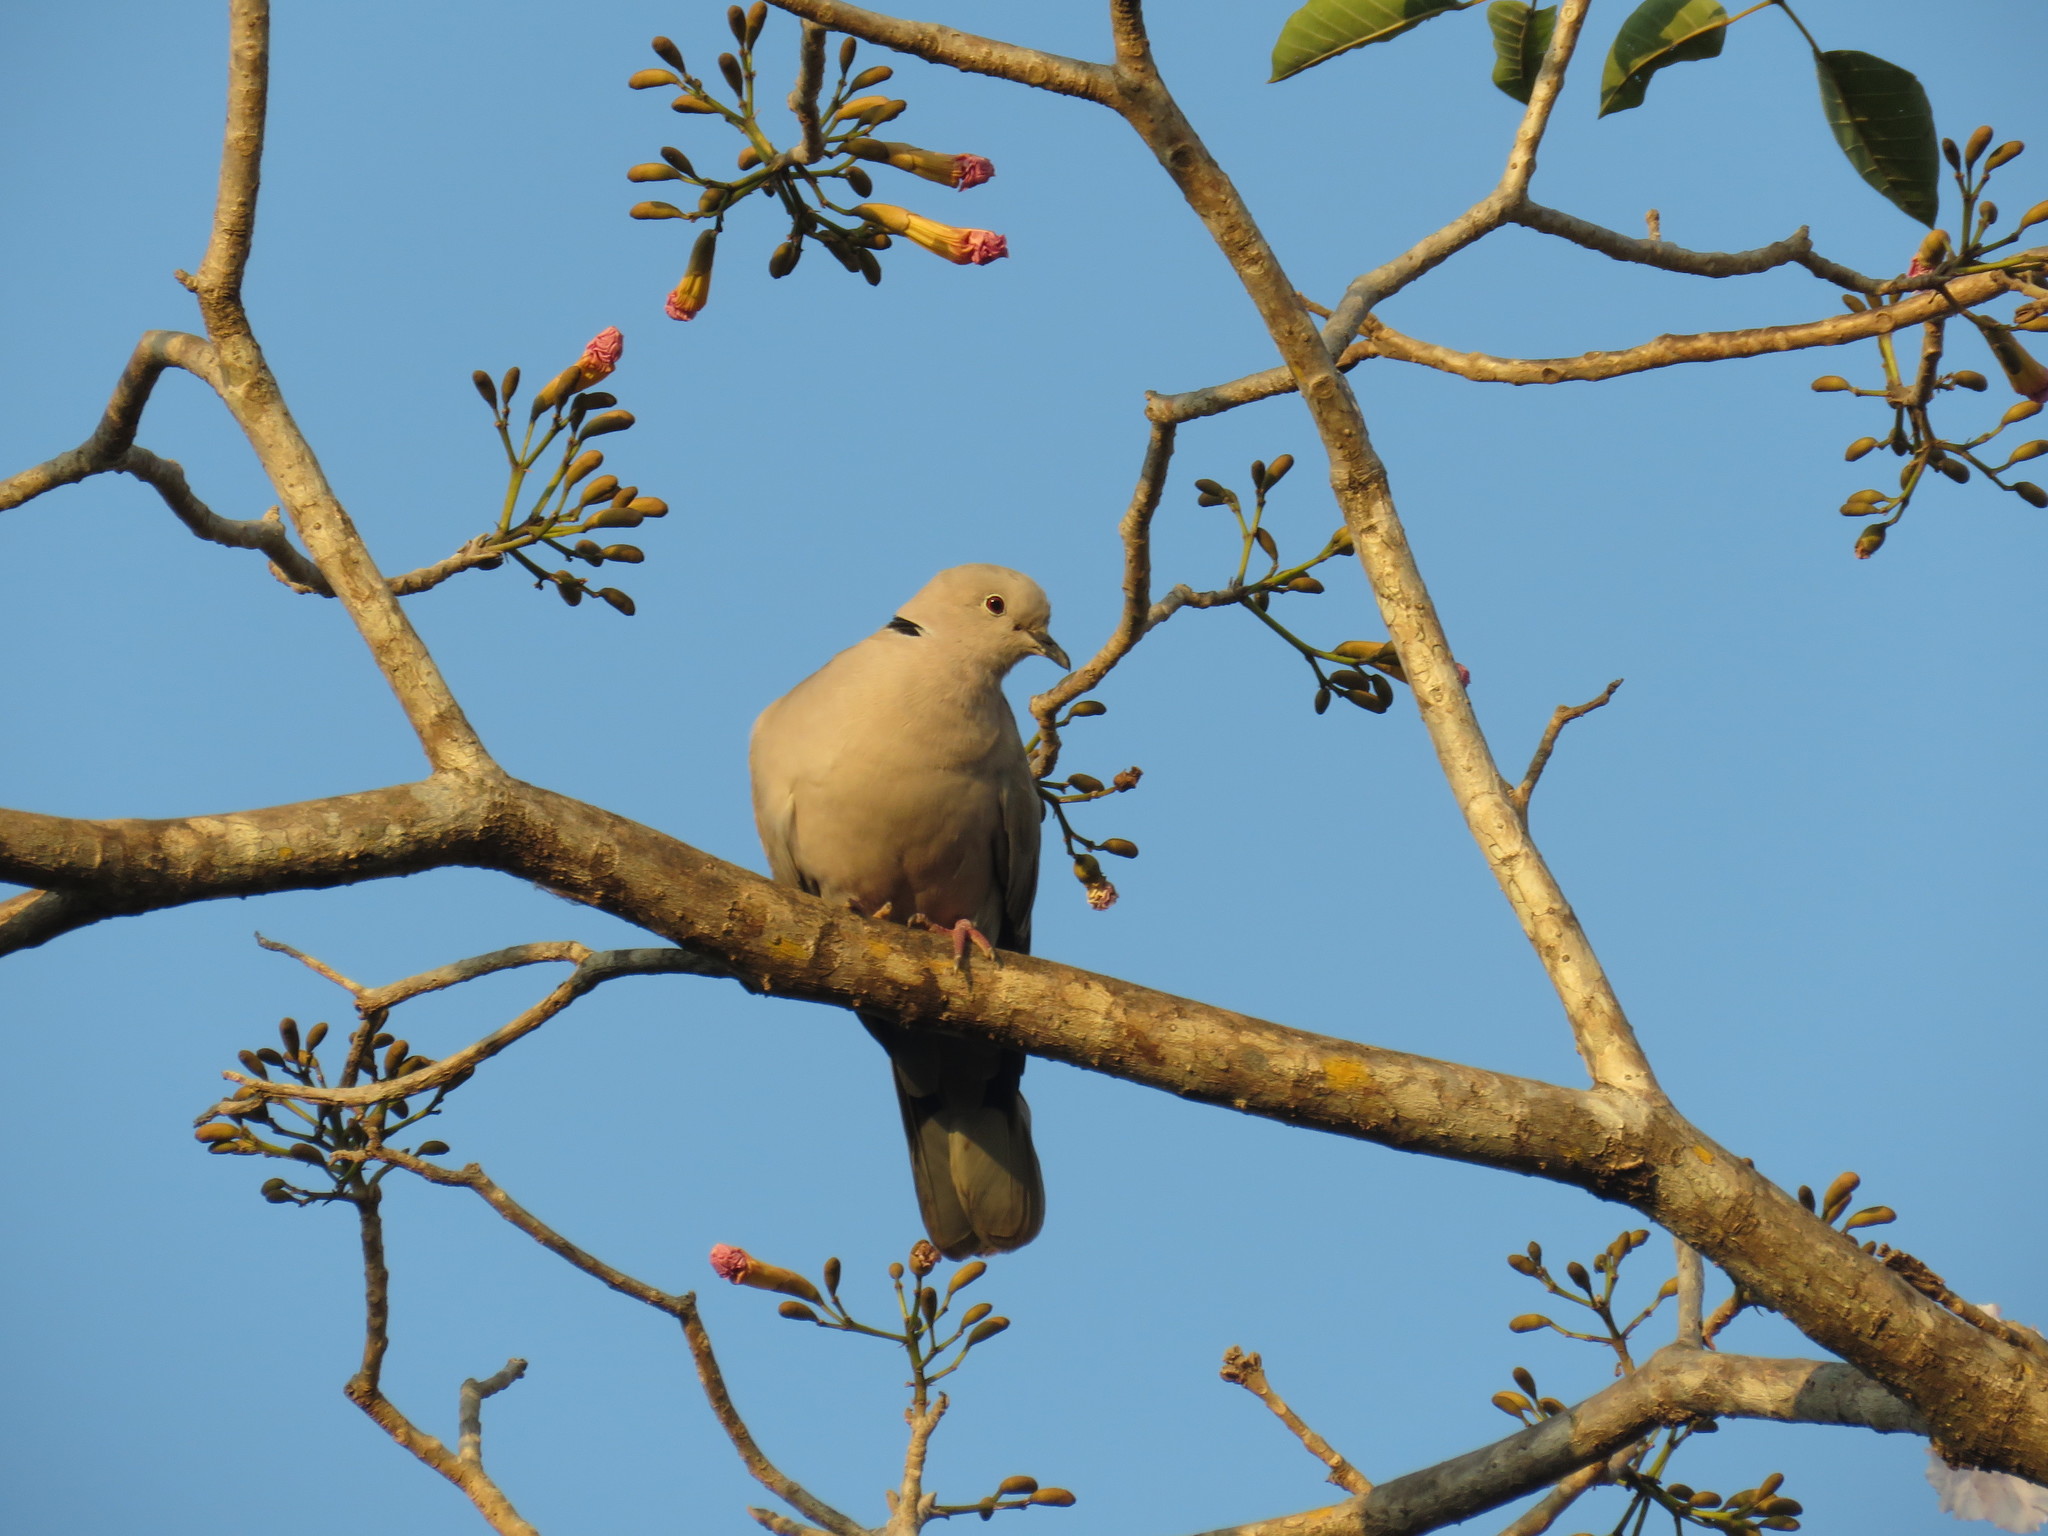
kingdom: Animalia
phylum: Chordata
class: Aves
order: Columbiformes
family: Columbidae
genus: Streptopelia
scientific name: Streptopelia decaocto
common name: Eurasian collared dove
